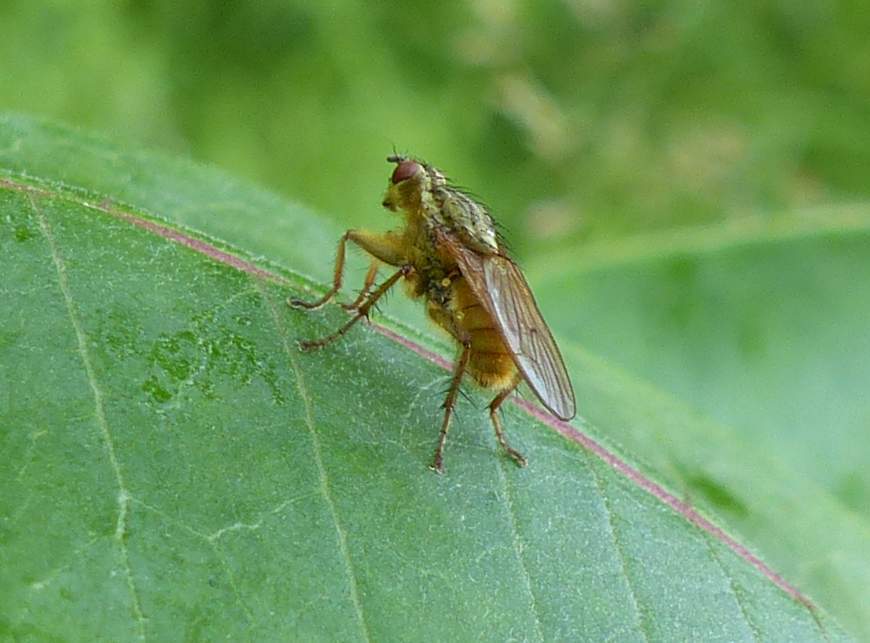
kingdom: Animalia
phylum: Arthropoda
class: Insecta
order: Diptera
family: Scathophagidae
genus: Scathophaga
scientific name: Scathophaga stercoraria
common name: Yellow dung fly
